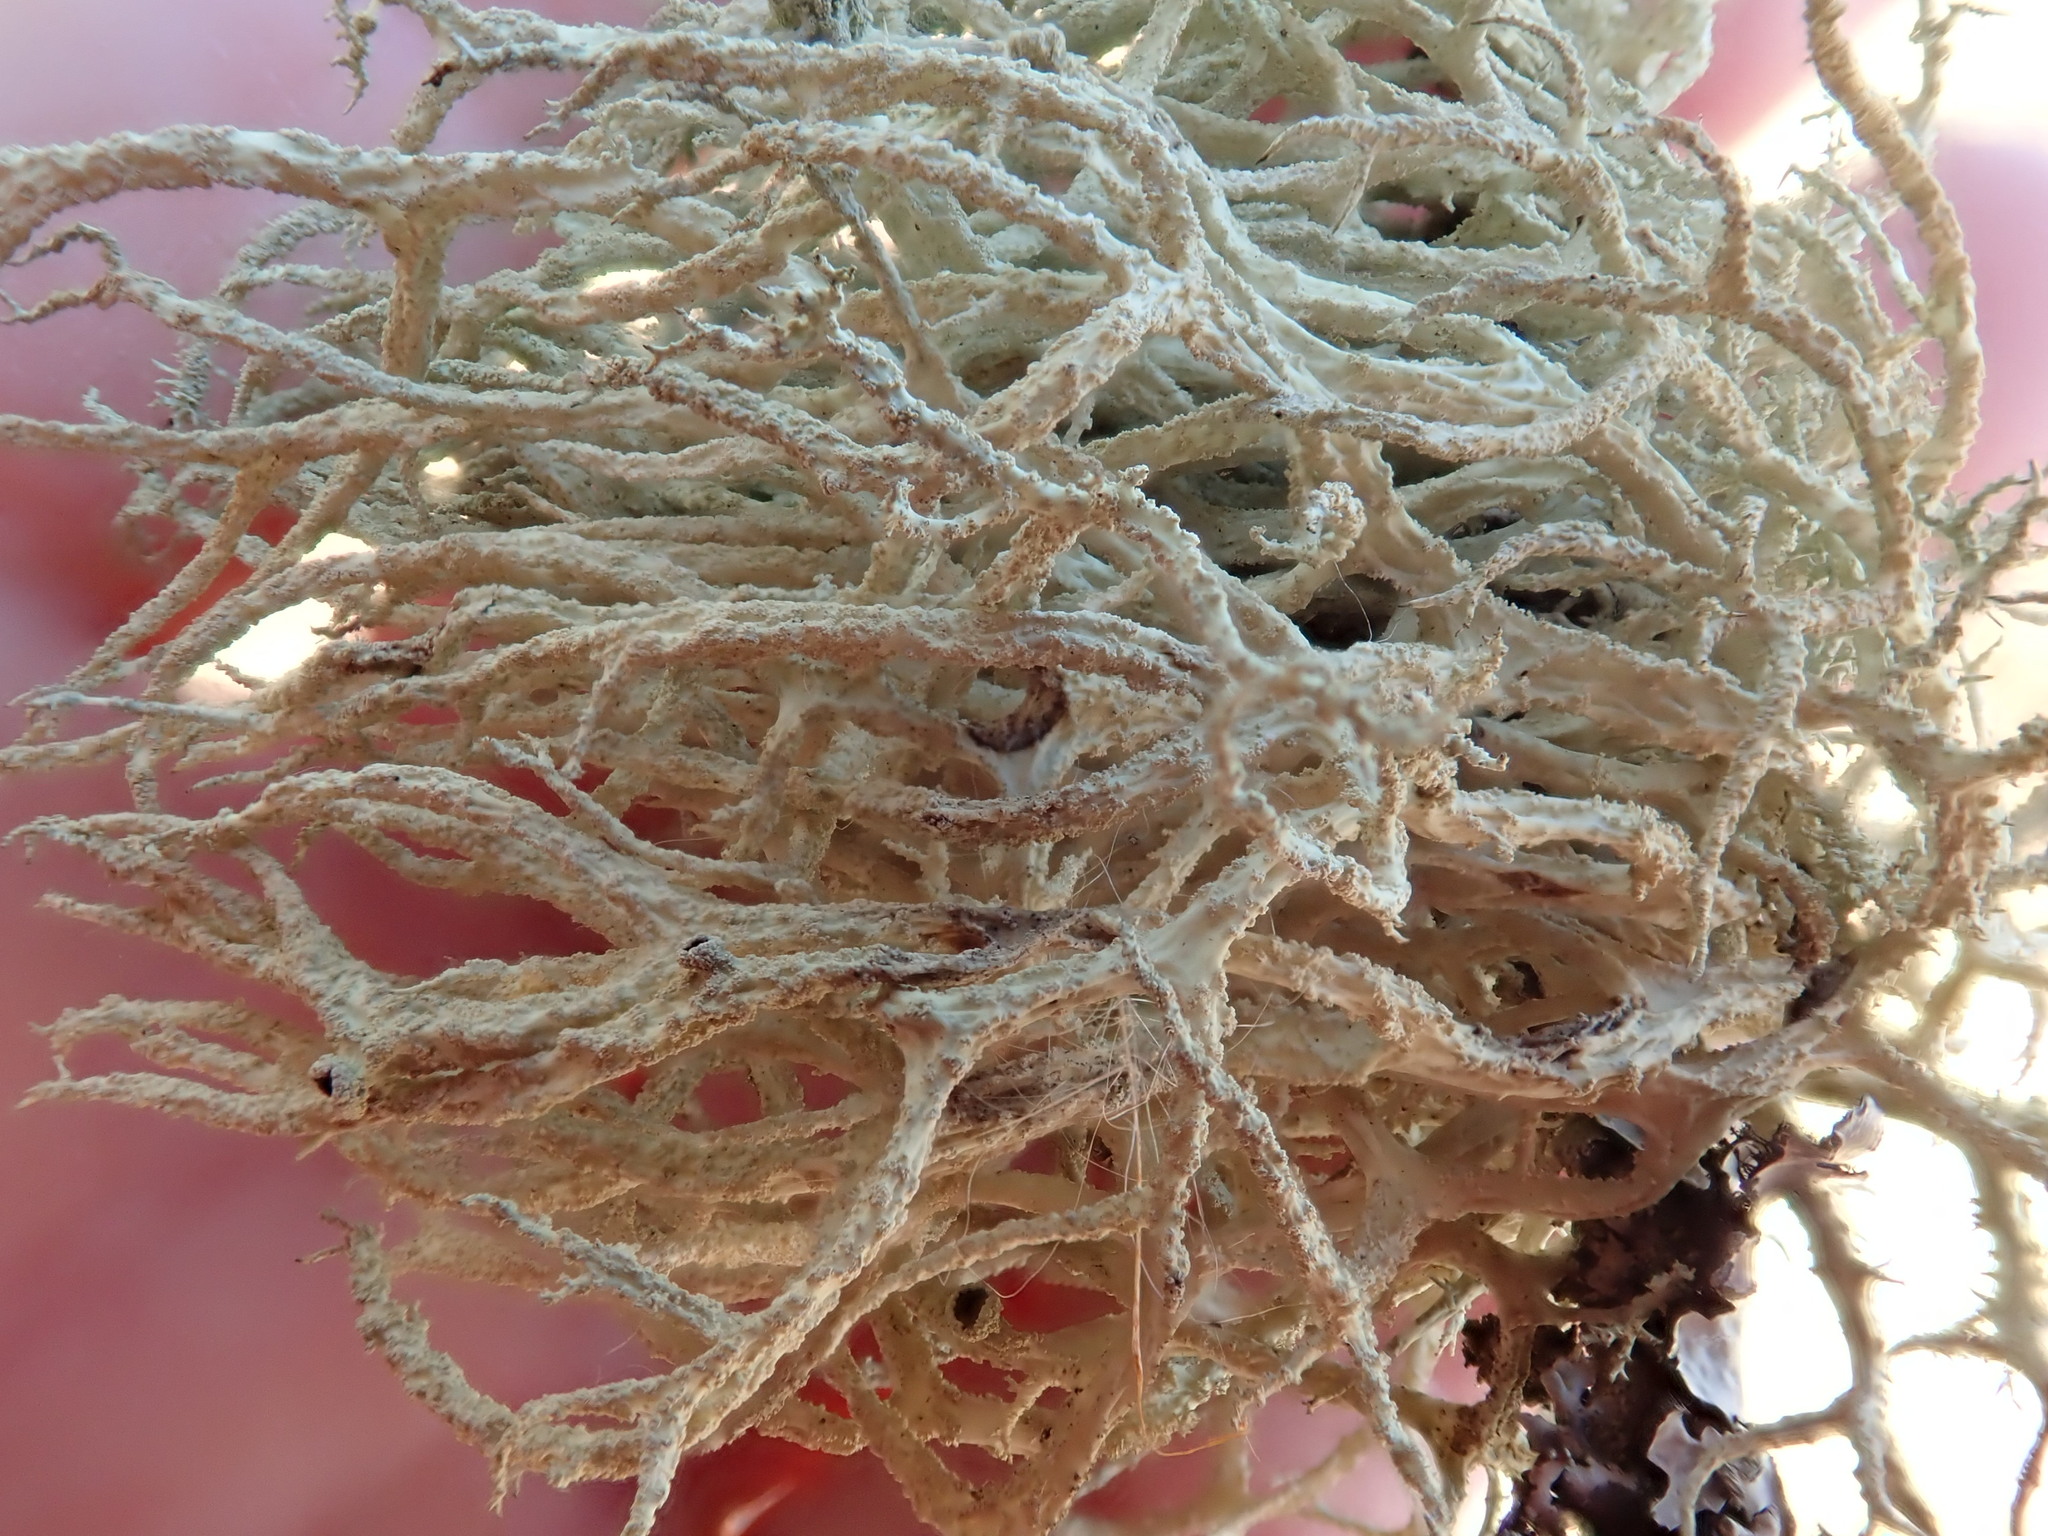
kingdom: Fungi
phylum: Ascomycota
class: Lecanoromycetes
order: Lecanorales
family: Parmeliaceae
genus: Evernia
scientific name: Evernia mesomorpha
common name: Boreal oak moss lichen
